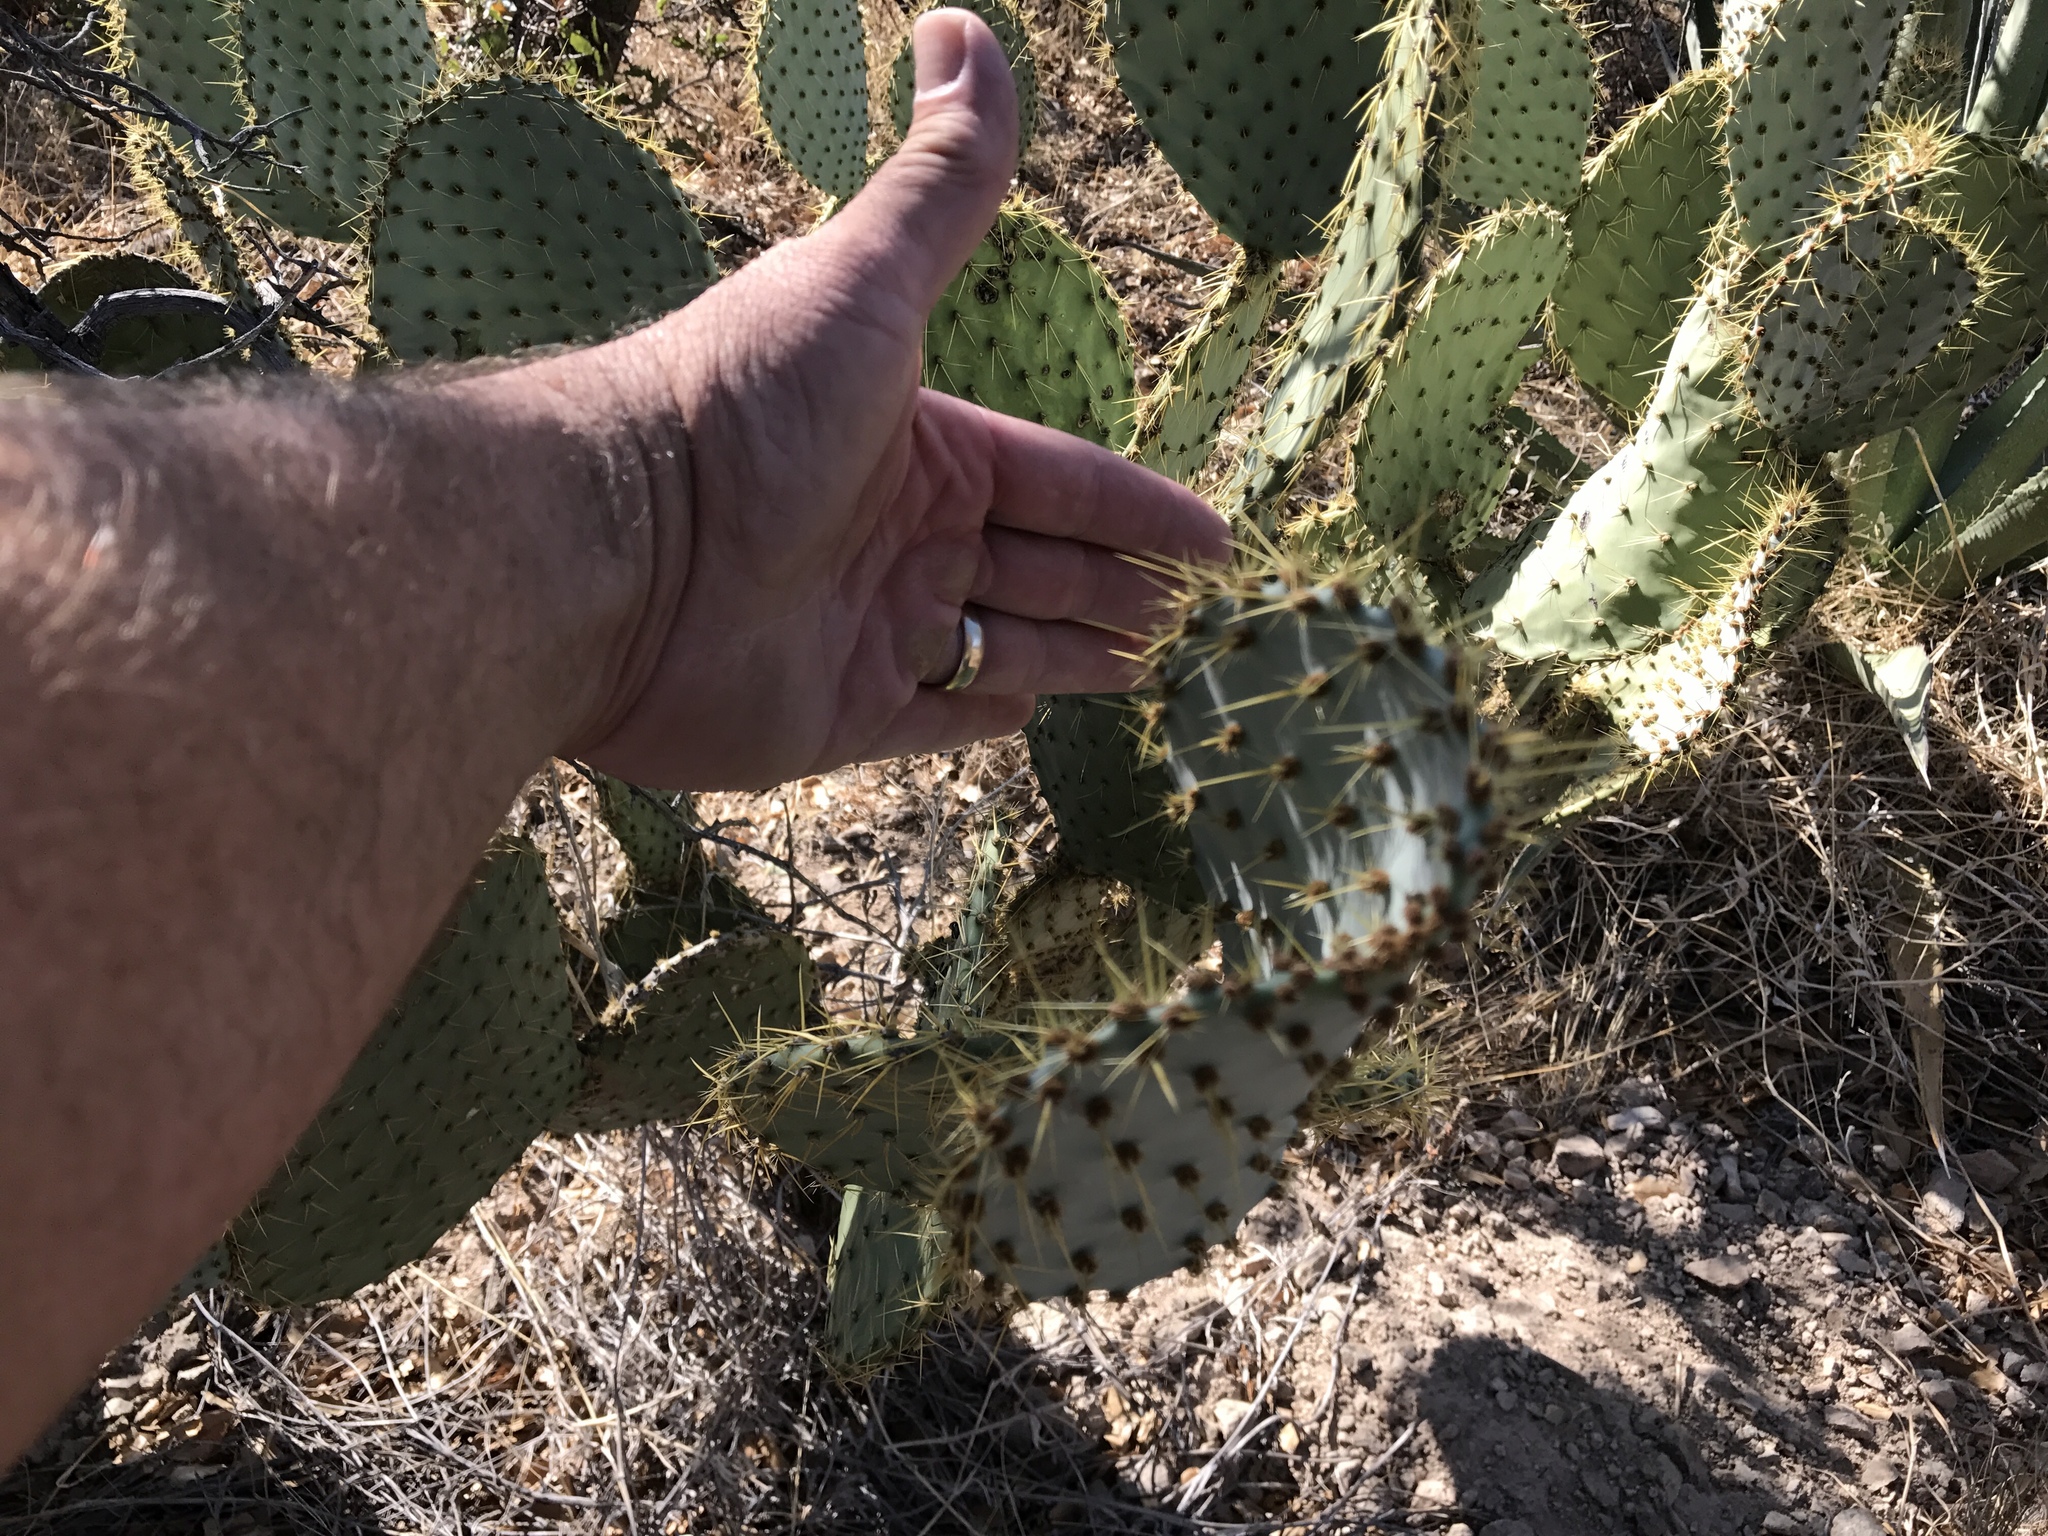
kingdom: Plantae
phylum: Tracheophyta
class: Magnoliopsida
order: Caryophyllales
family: Cactaceae
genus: Opuntia
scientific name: Opuntia chlorotica
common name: Dollar-joint prickly-pear
